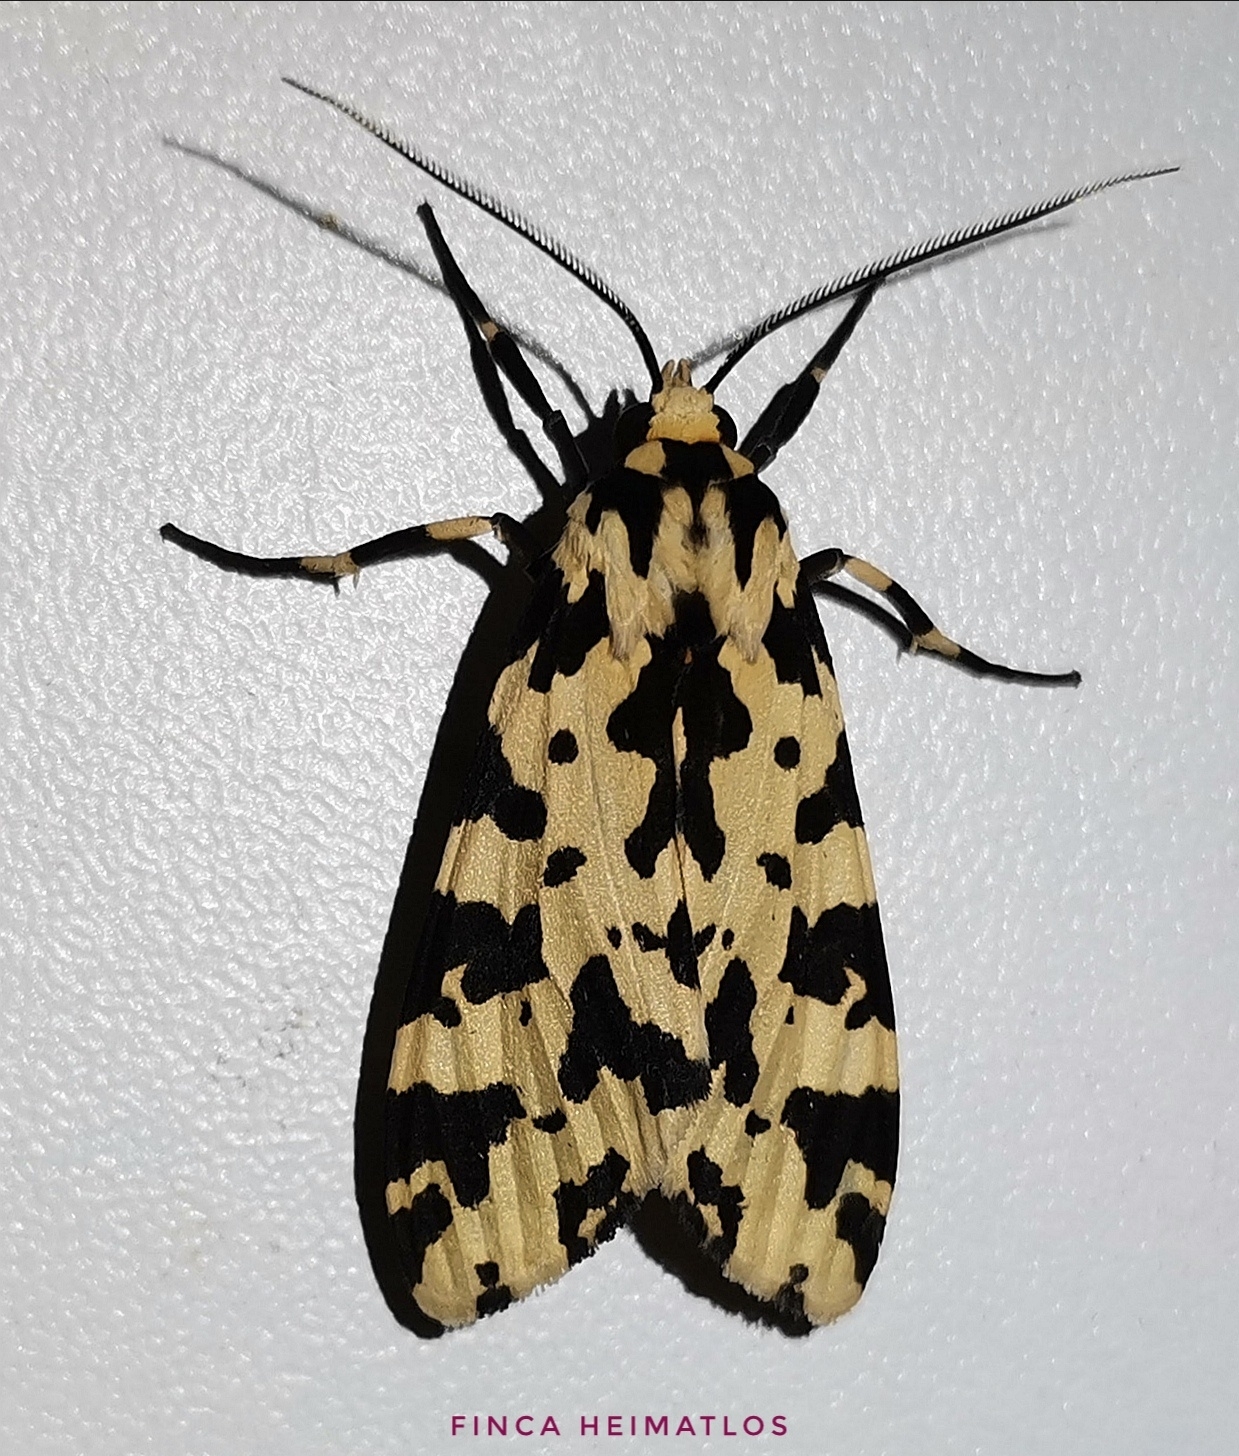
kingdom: Animalia
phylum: Arthropoda
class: Insecta
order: Lepidoptera
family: Erebidae
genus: Eucereon
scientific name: Eucereon tigrata
